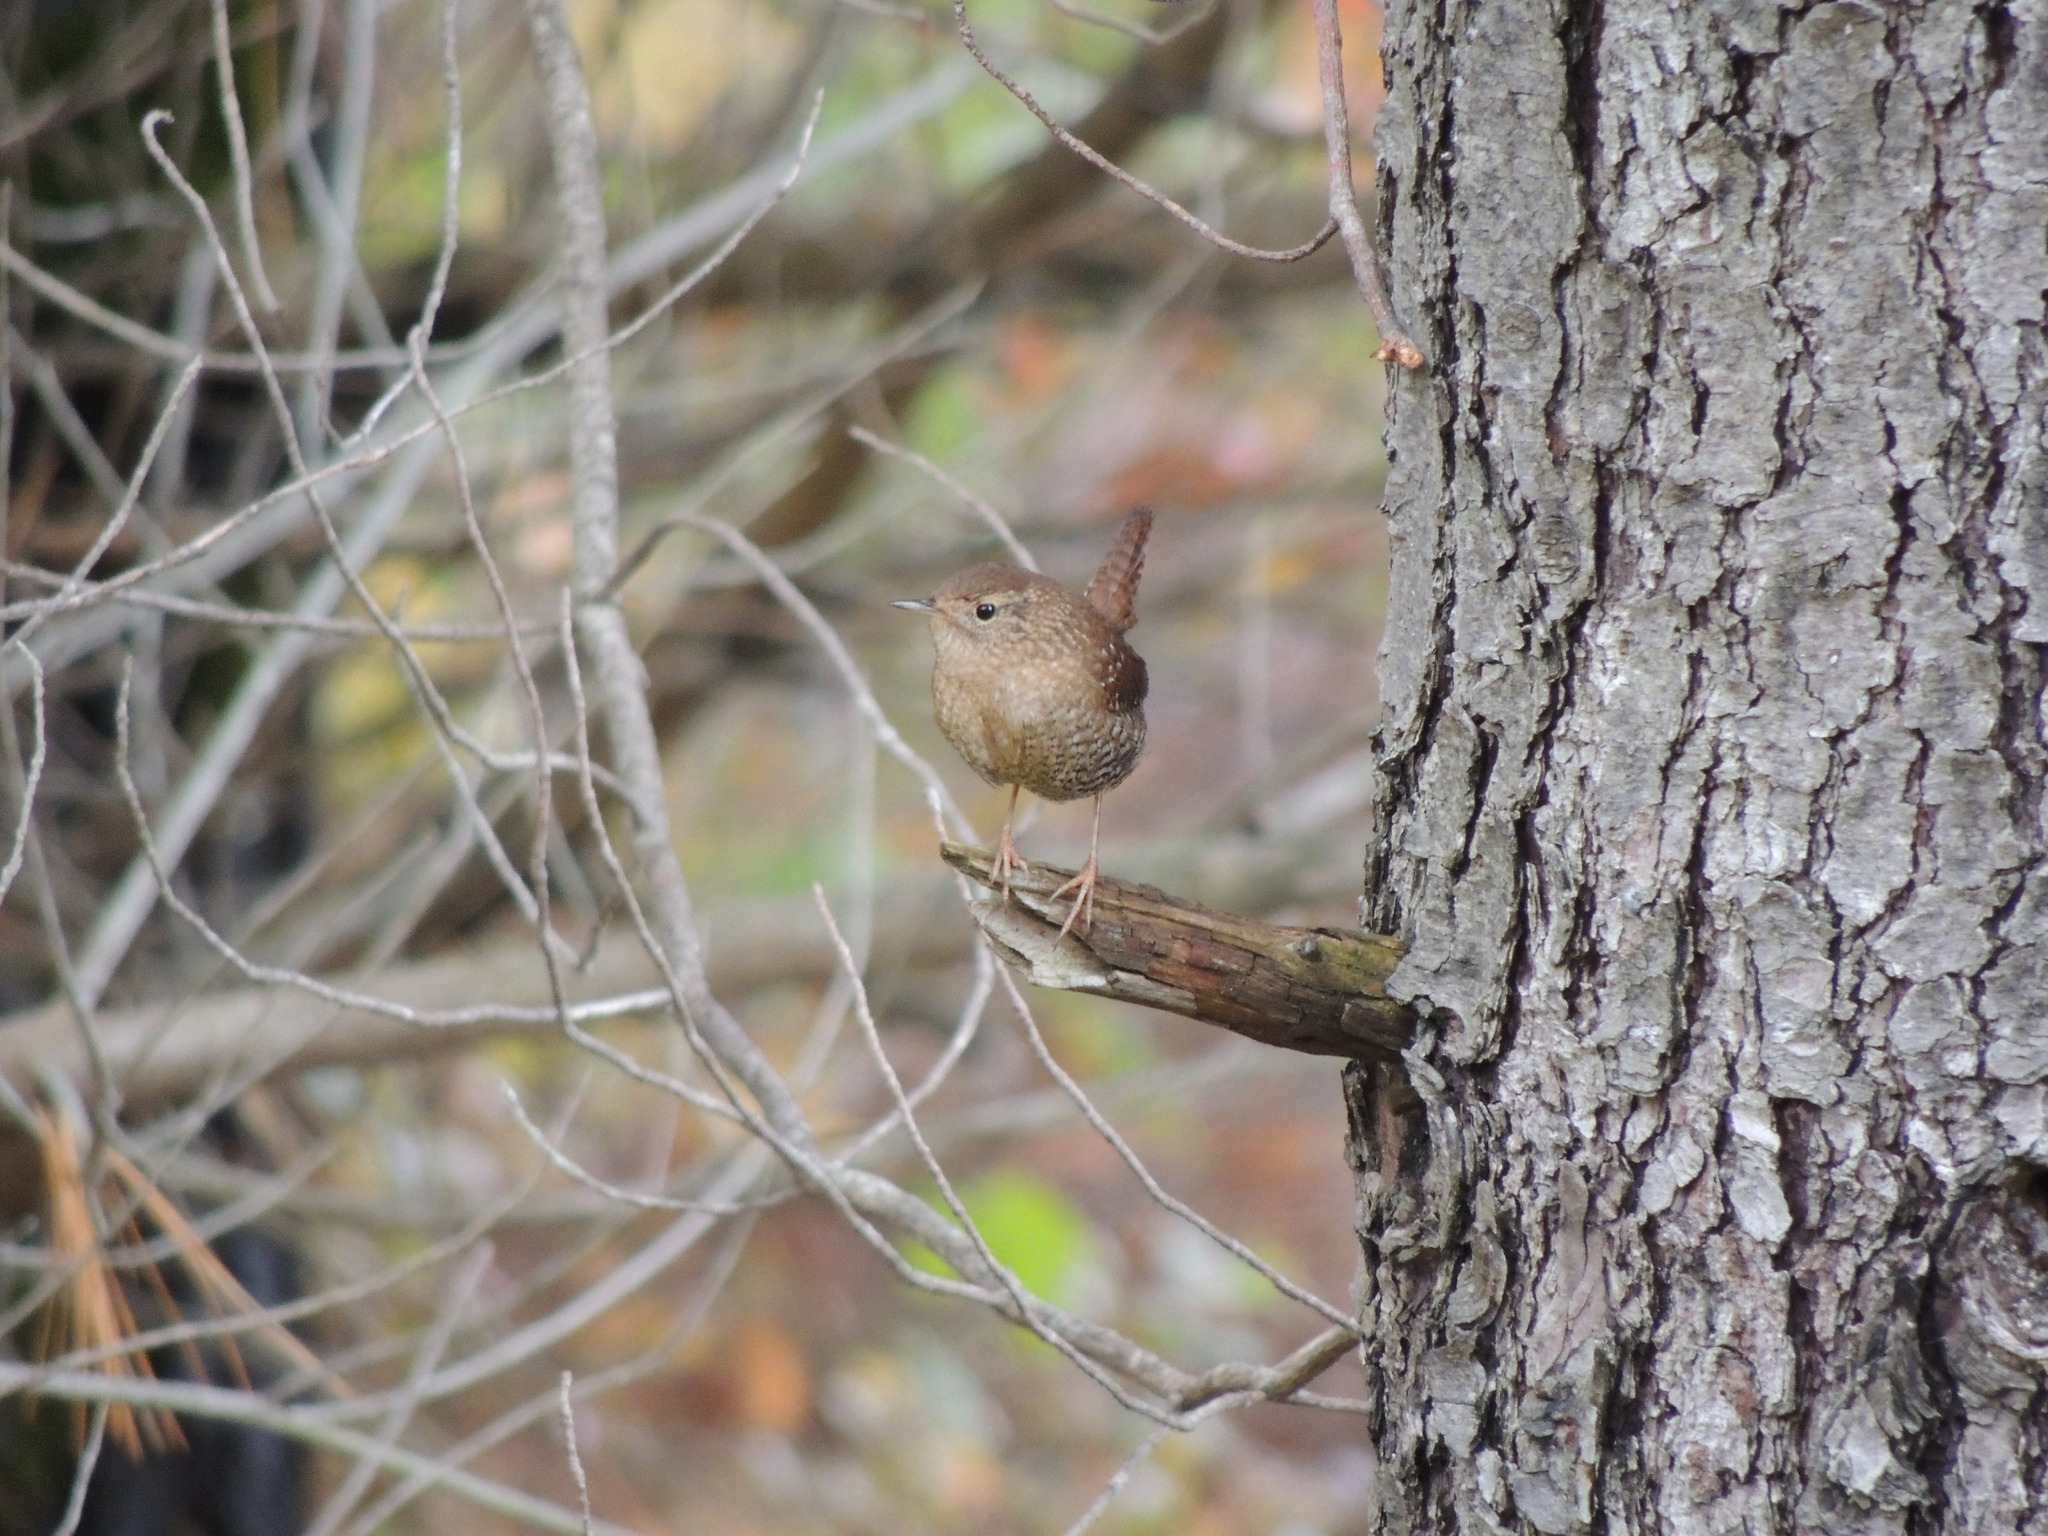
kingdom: Animalia
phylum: Chordata
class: Aves
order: Passeriformes
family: Troglodytidae
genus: Troglodytes
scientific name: Troglodytes hiemalis
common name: Winter wren
